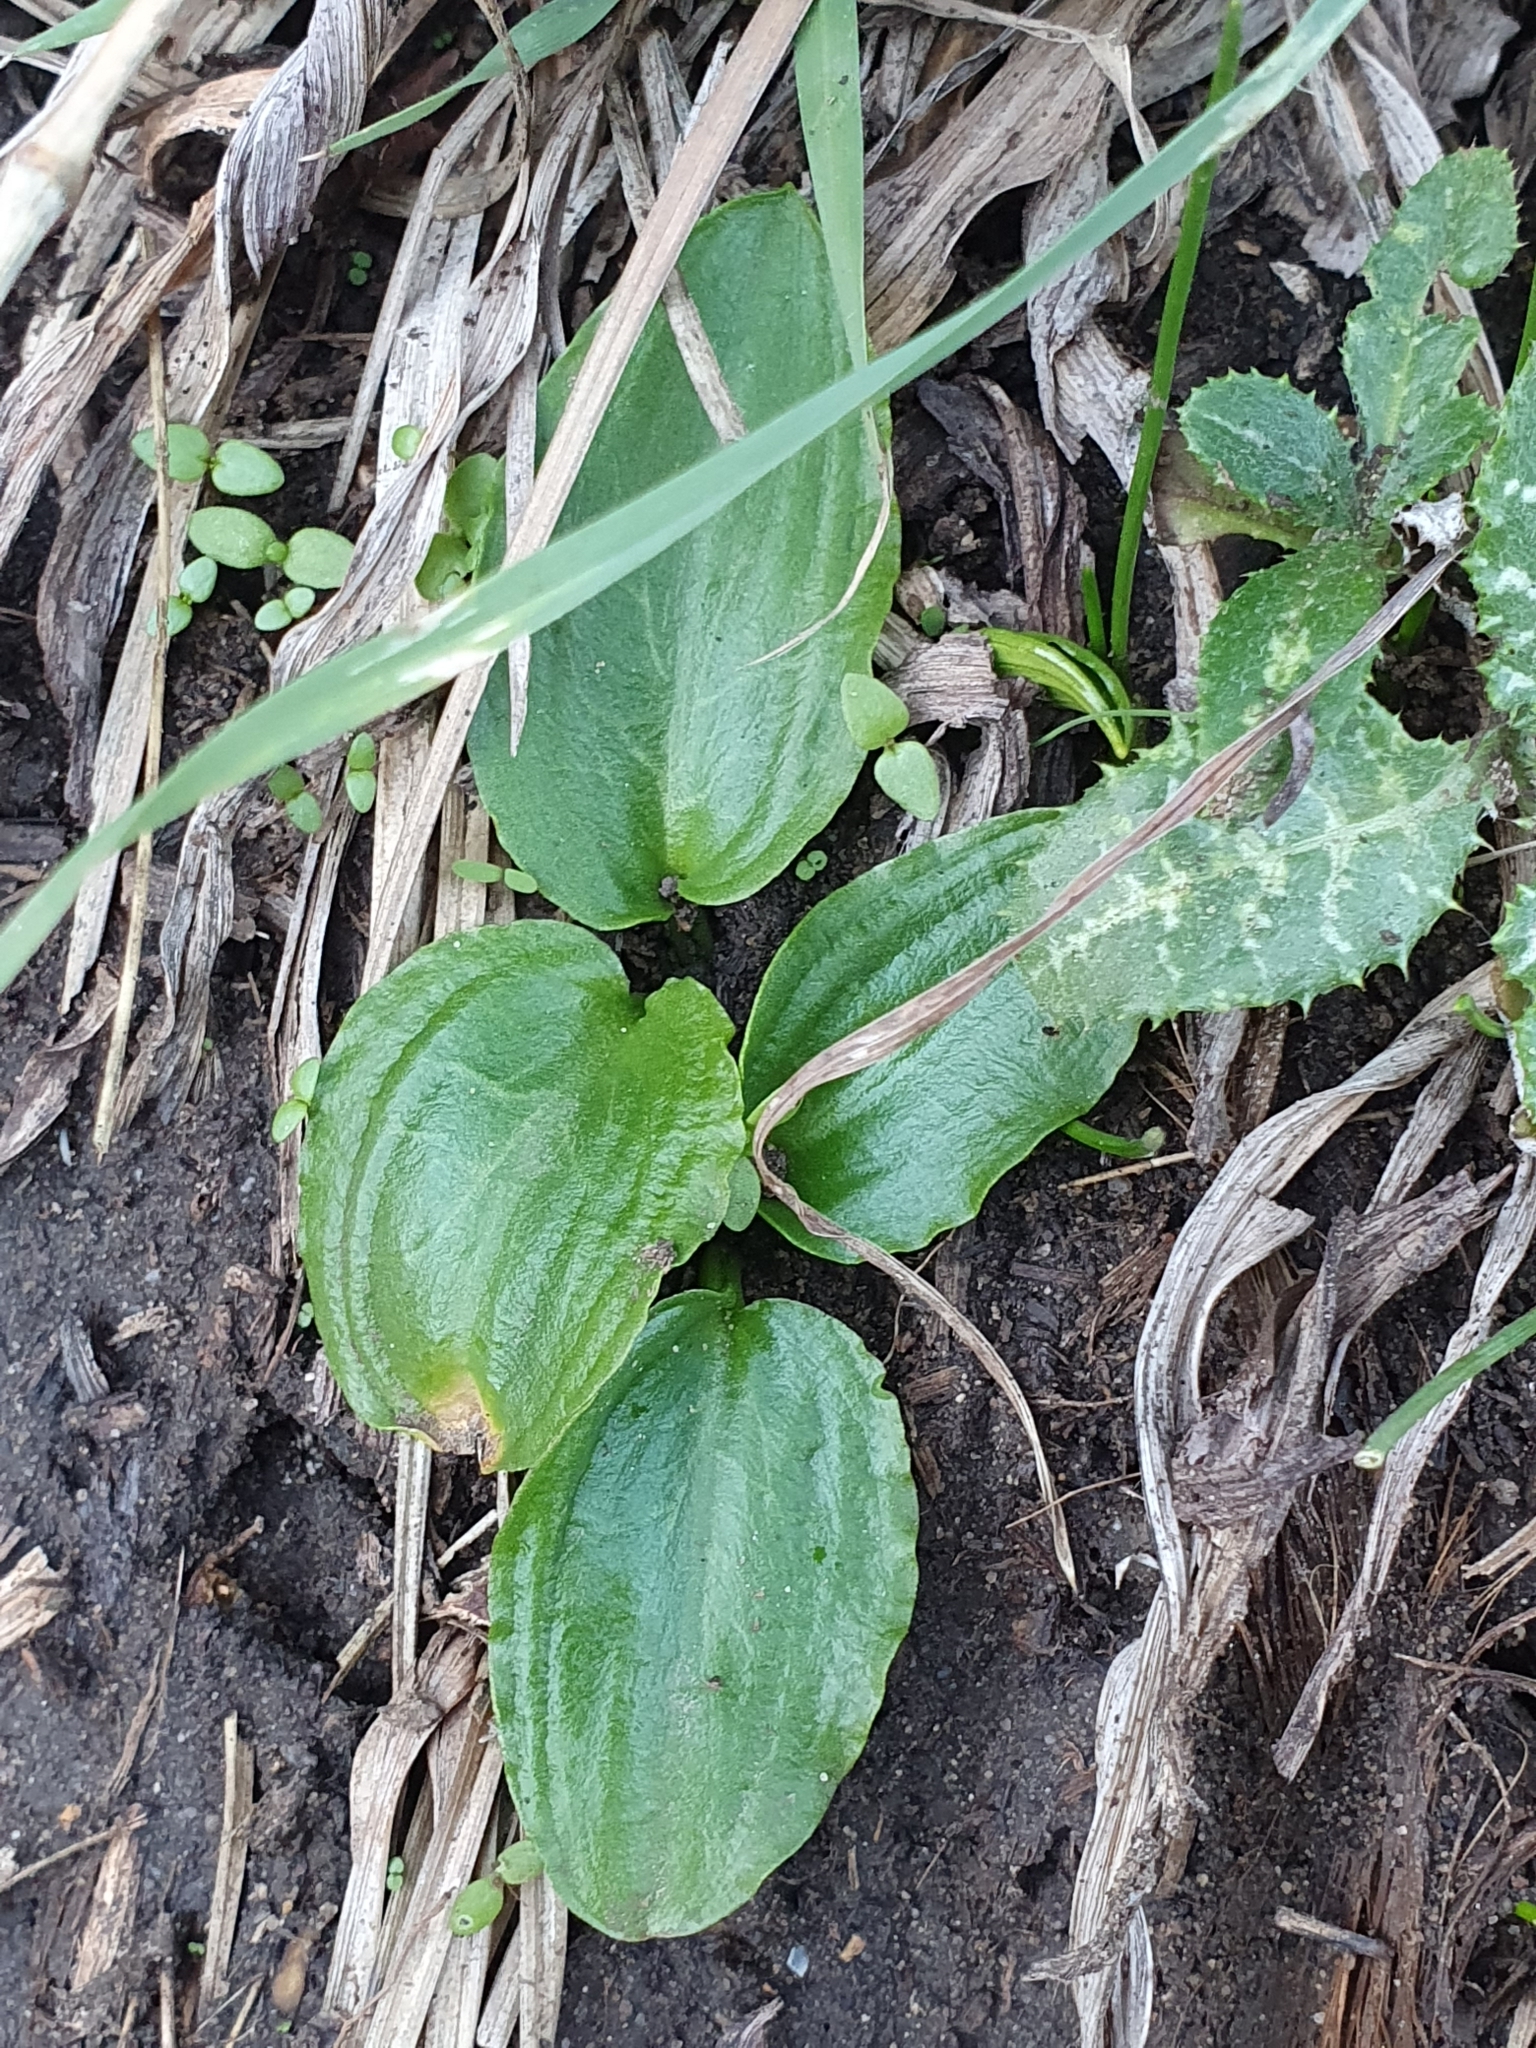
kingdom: Plantae
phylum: Tracheophyta
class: Liliopsida
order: Alismatales
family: Araceae
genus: Ambrosina
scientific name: Ambrosina bassii
